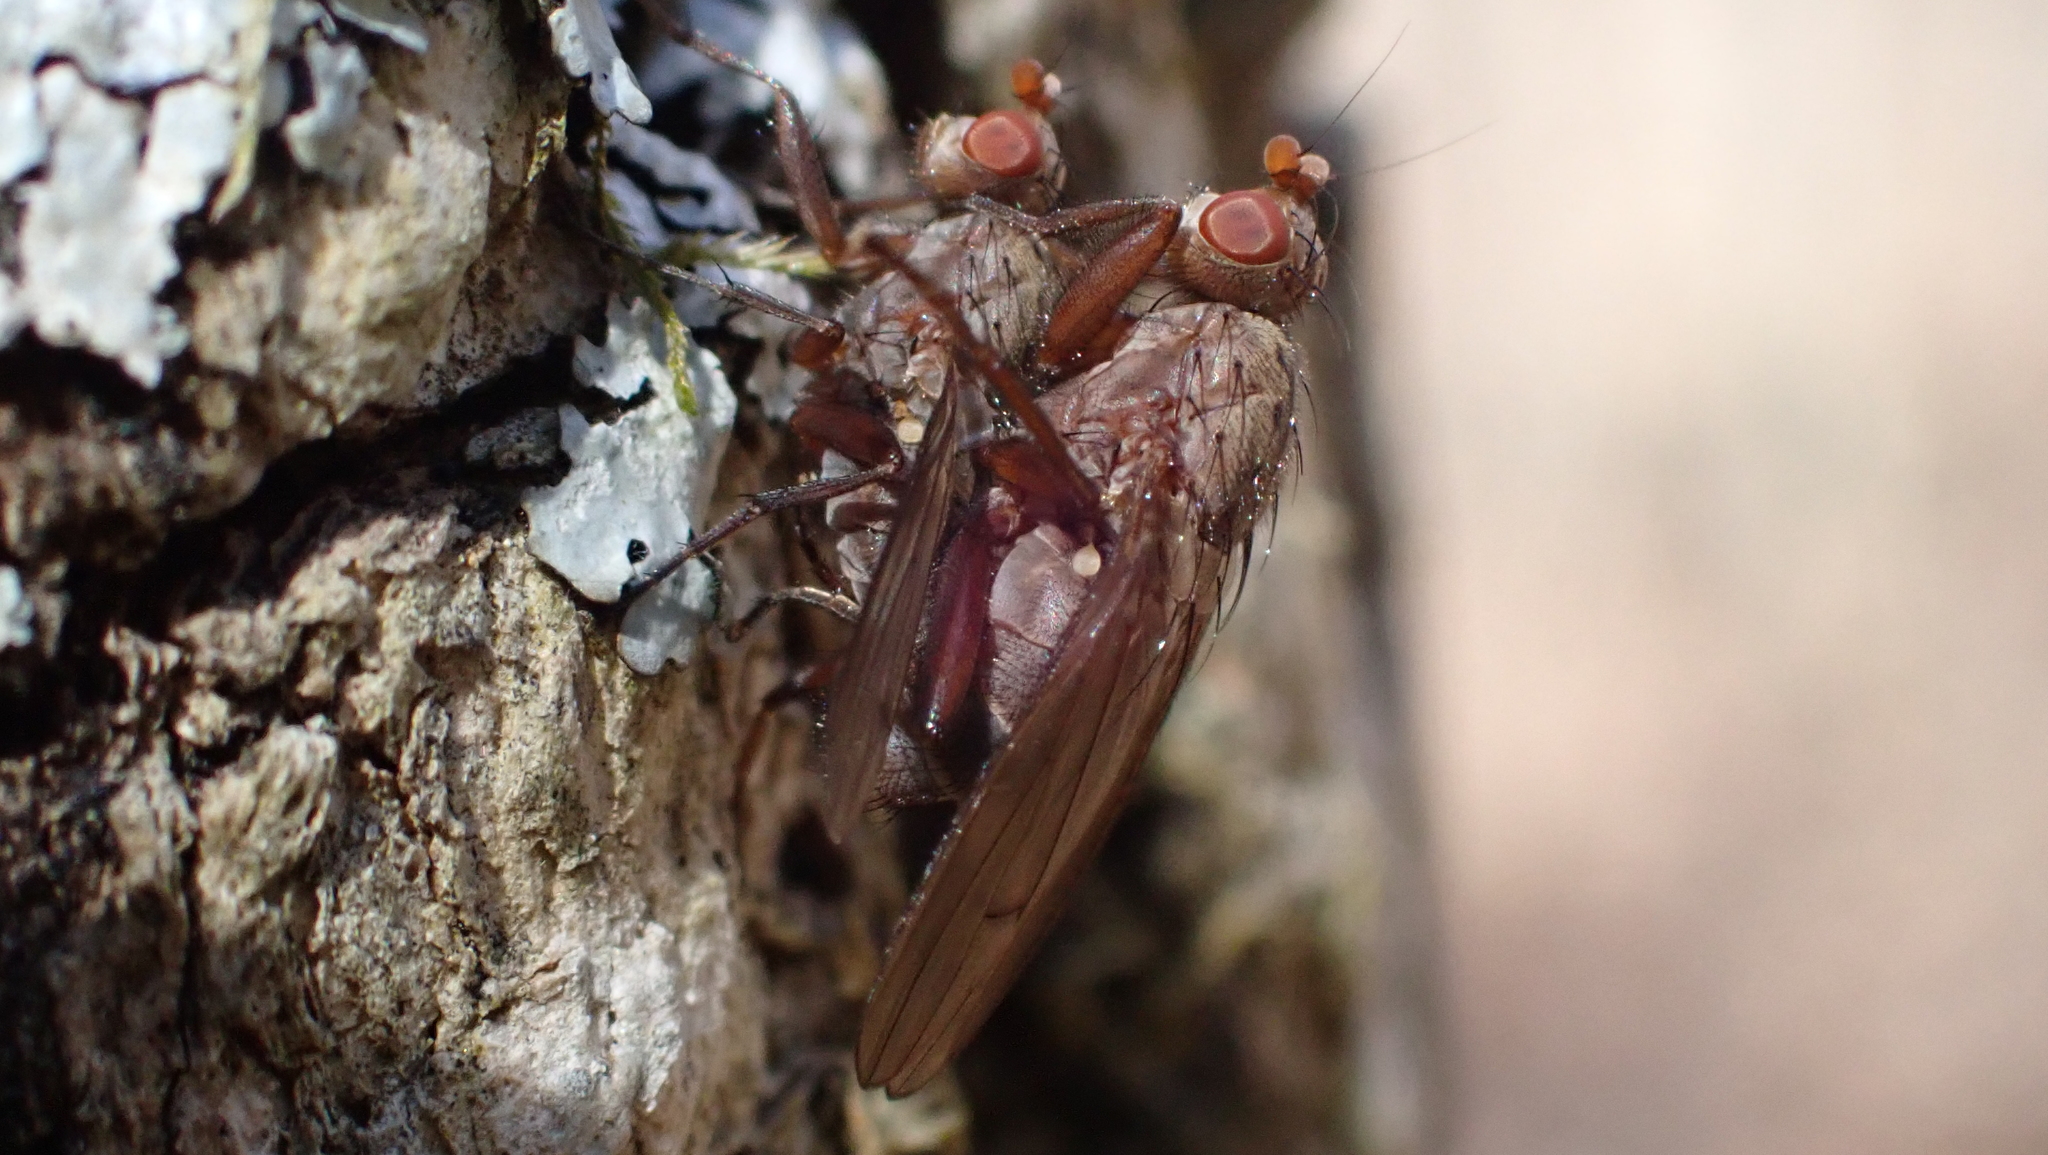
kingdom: Animalia
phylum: Arthropoda
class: Insecta
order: Diptera
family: Heleomyzidae
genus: Amoebaleria
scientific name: Amoebaleria defessa
